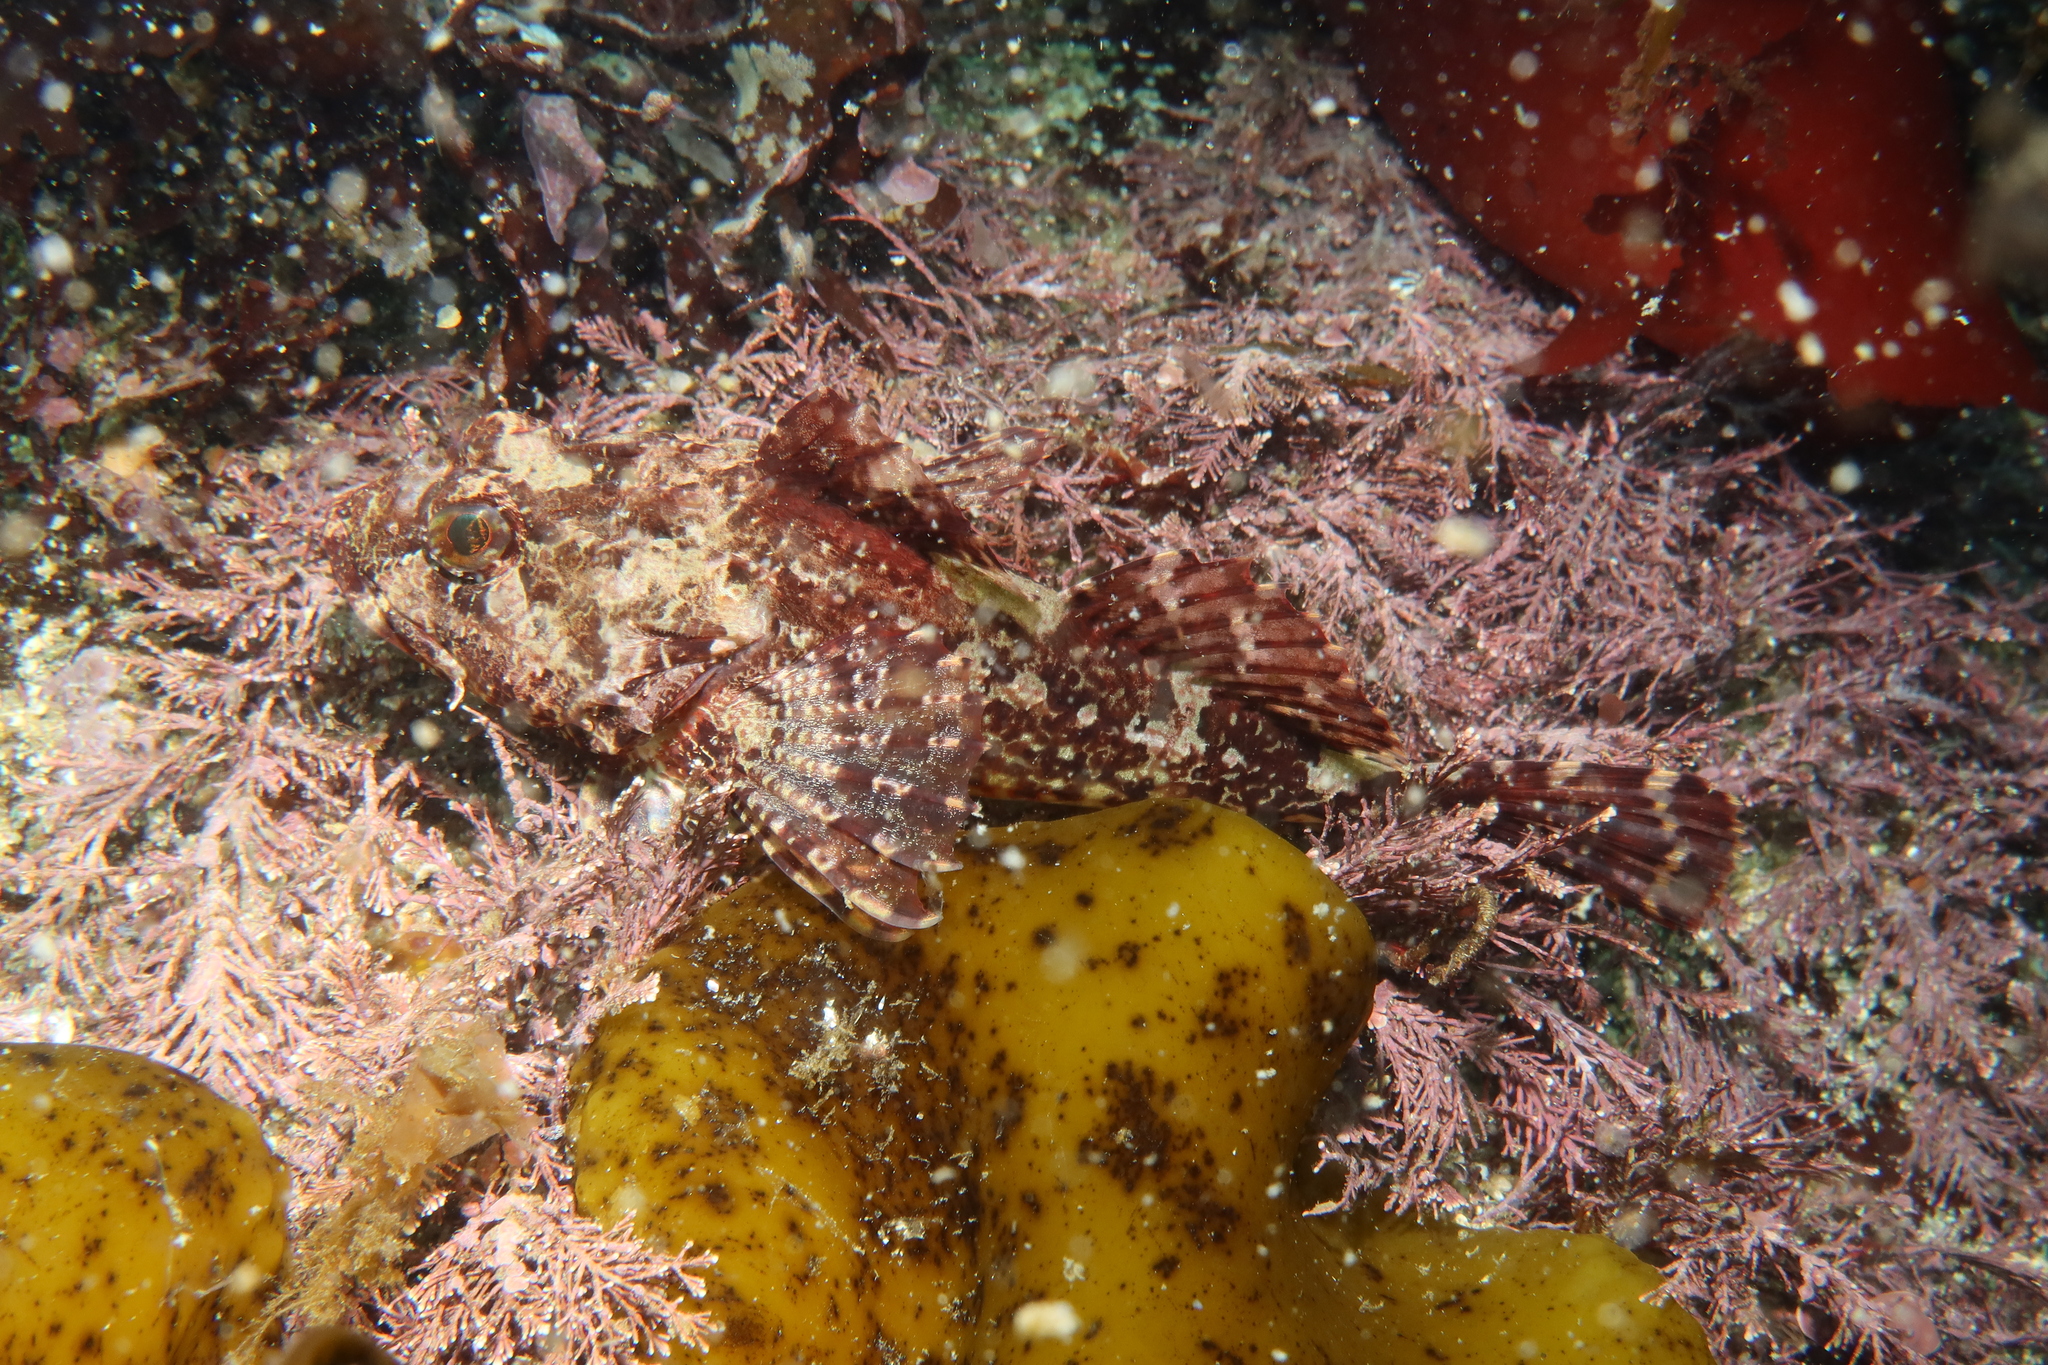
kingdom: Animalia
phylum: Chordata
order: Scorpaeniformes
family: Cottidae
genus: Taurulus
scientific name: Taurulus bubalis
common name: Sea scorpion
